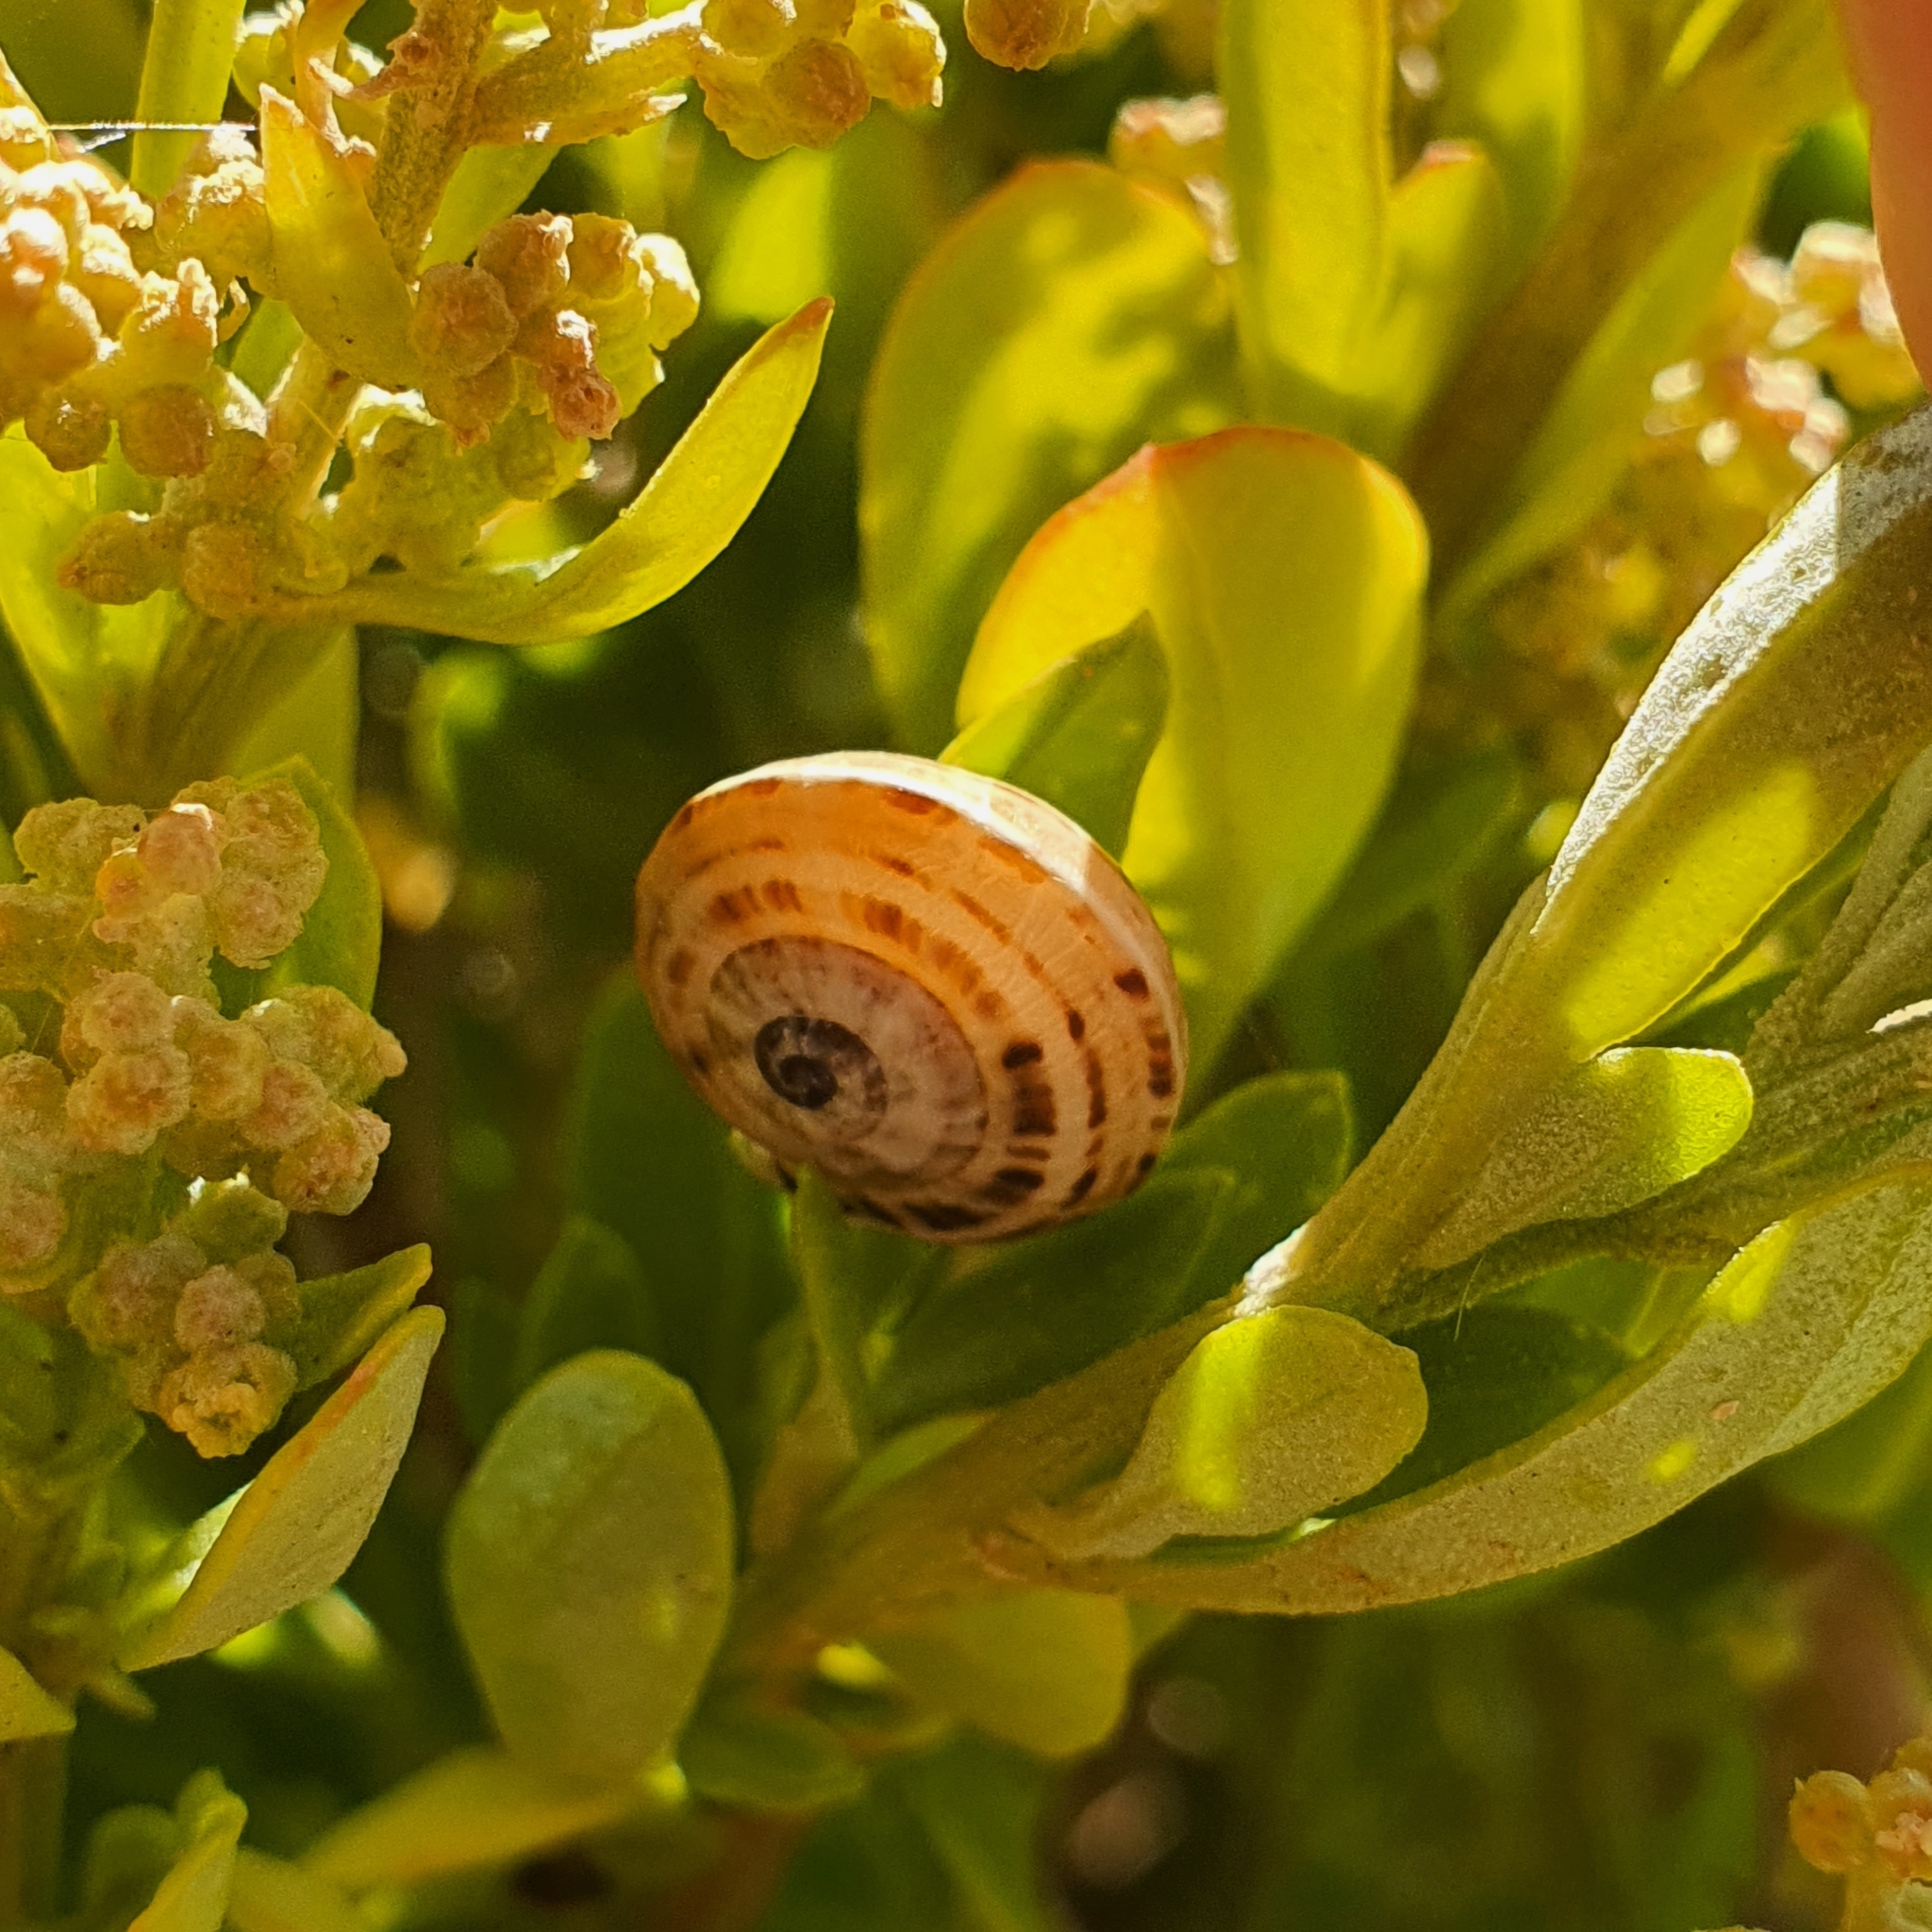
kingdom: Animalia
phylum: Mollusca
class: Gastropoda
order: Stylommatophora
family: Helicidae
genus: Theba
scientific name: Theba pisana
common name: White snail
